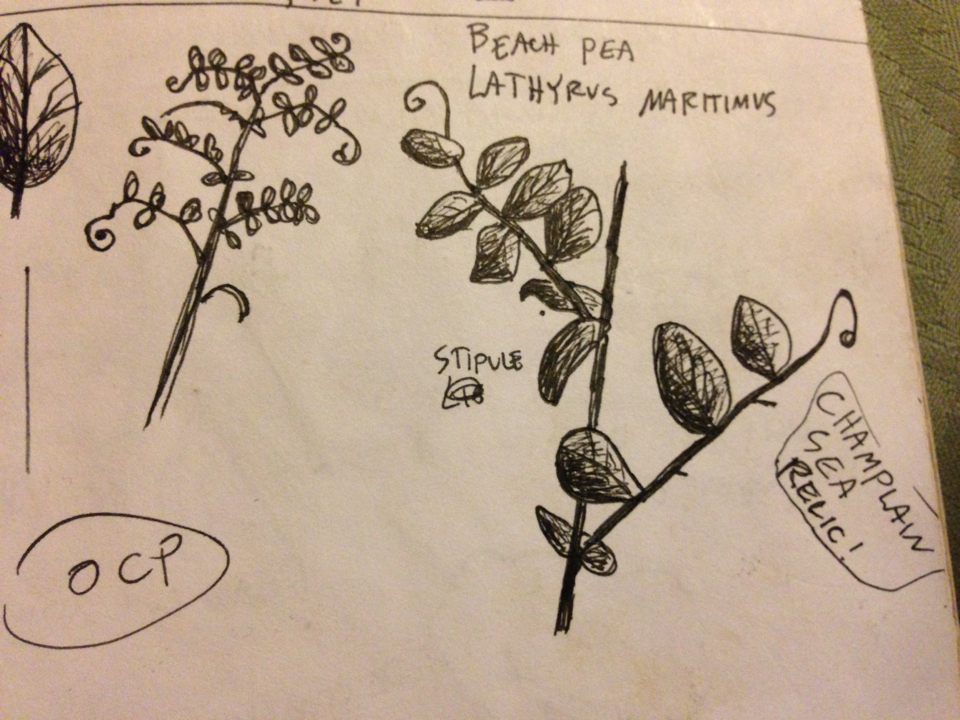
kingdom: Plantae
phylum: Tracheophyta
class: Magnoliopsida
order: Fabales
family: Fabaceae
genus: Lathyrus
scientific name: Lathyrus japonicus
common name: Sea pea
